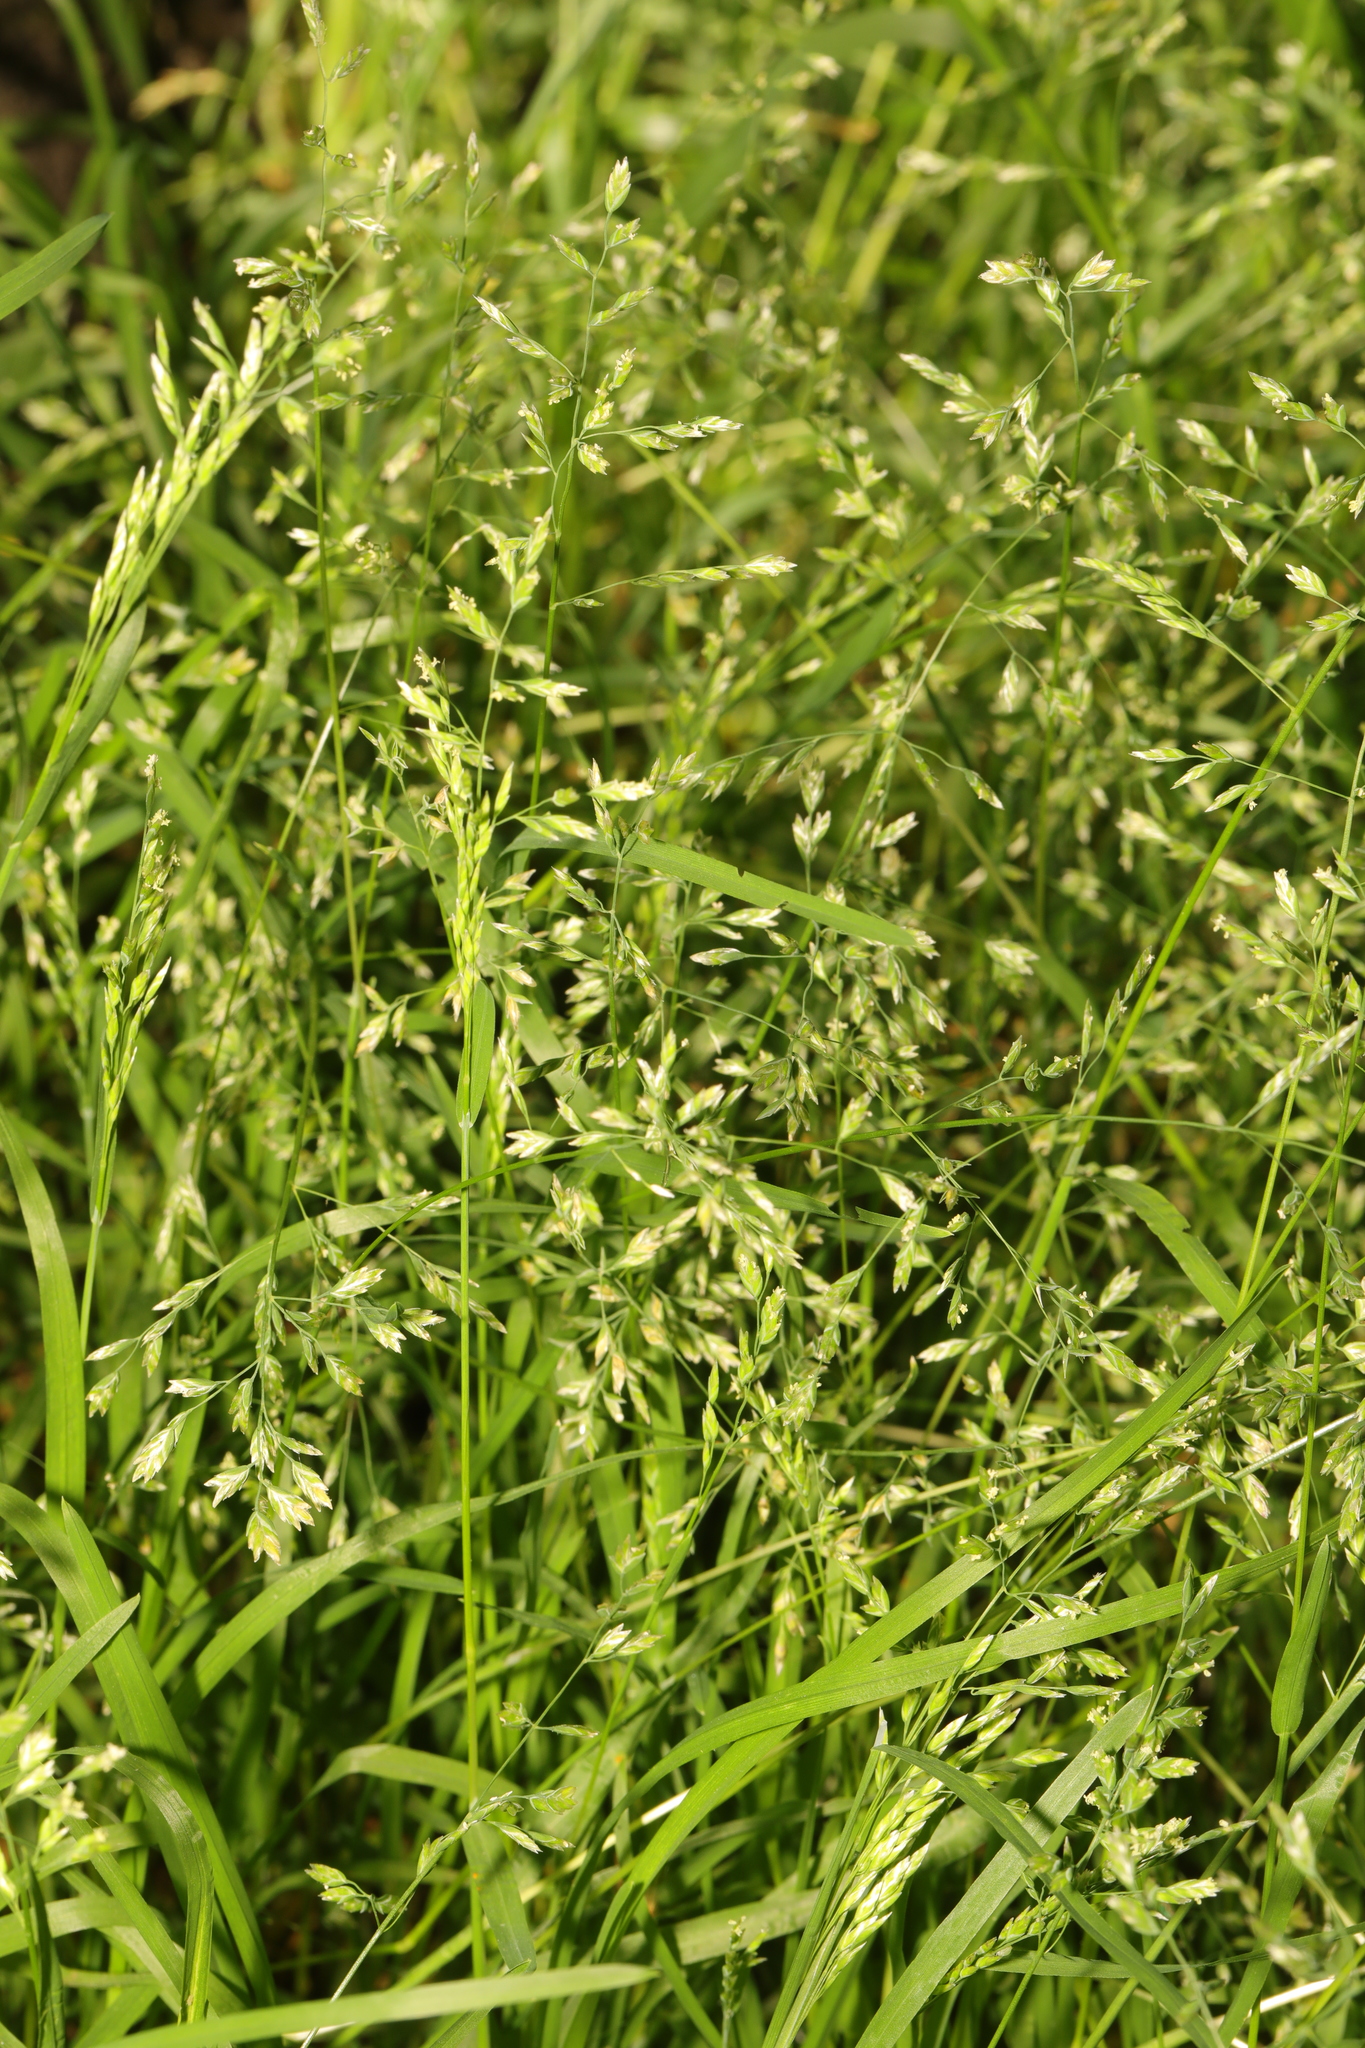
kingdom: Plantae
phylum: Tracheophyta
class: Liliopsida
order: Poales
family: Poaceae
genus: Poa
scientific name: Poa annua
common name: Annual bluegrass
